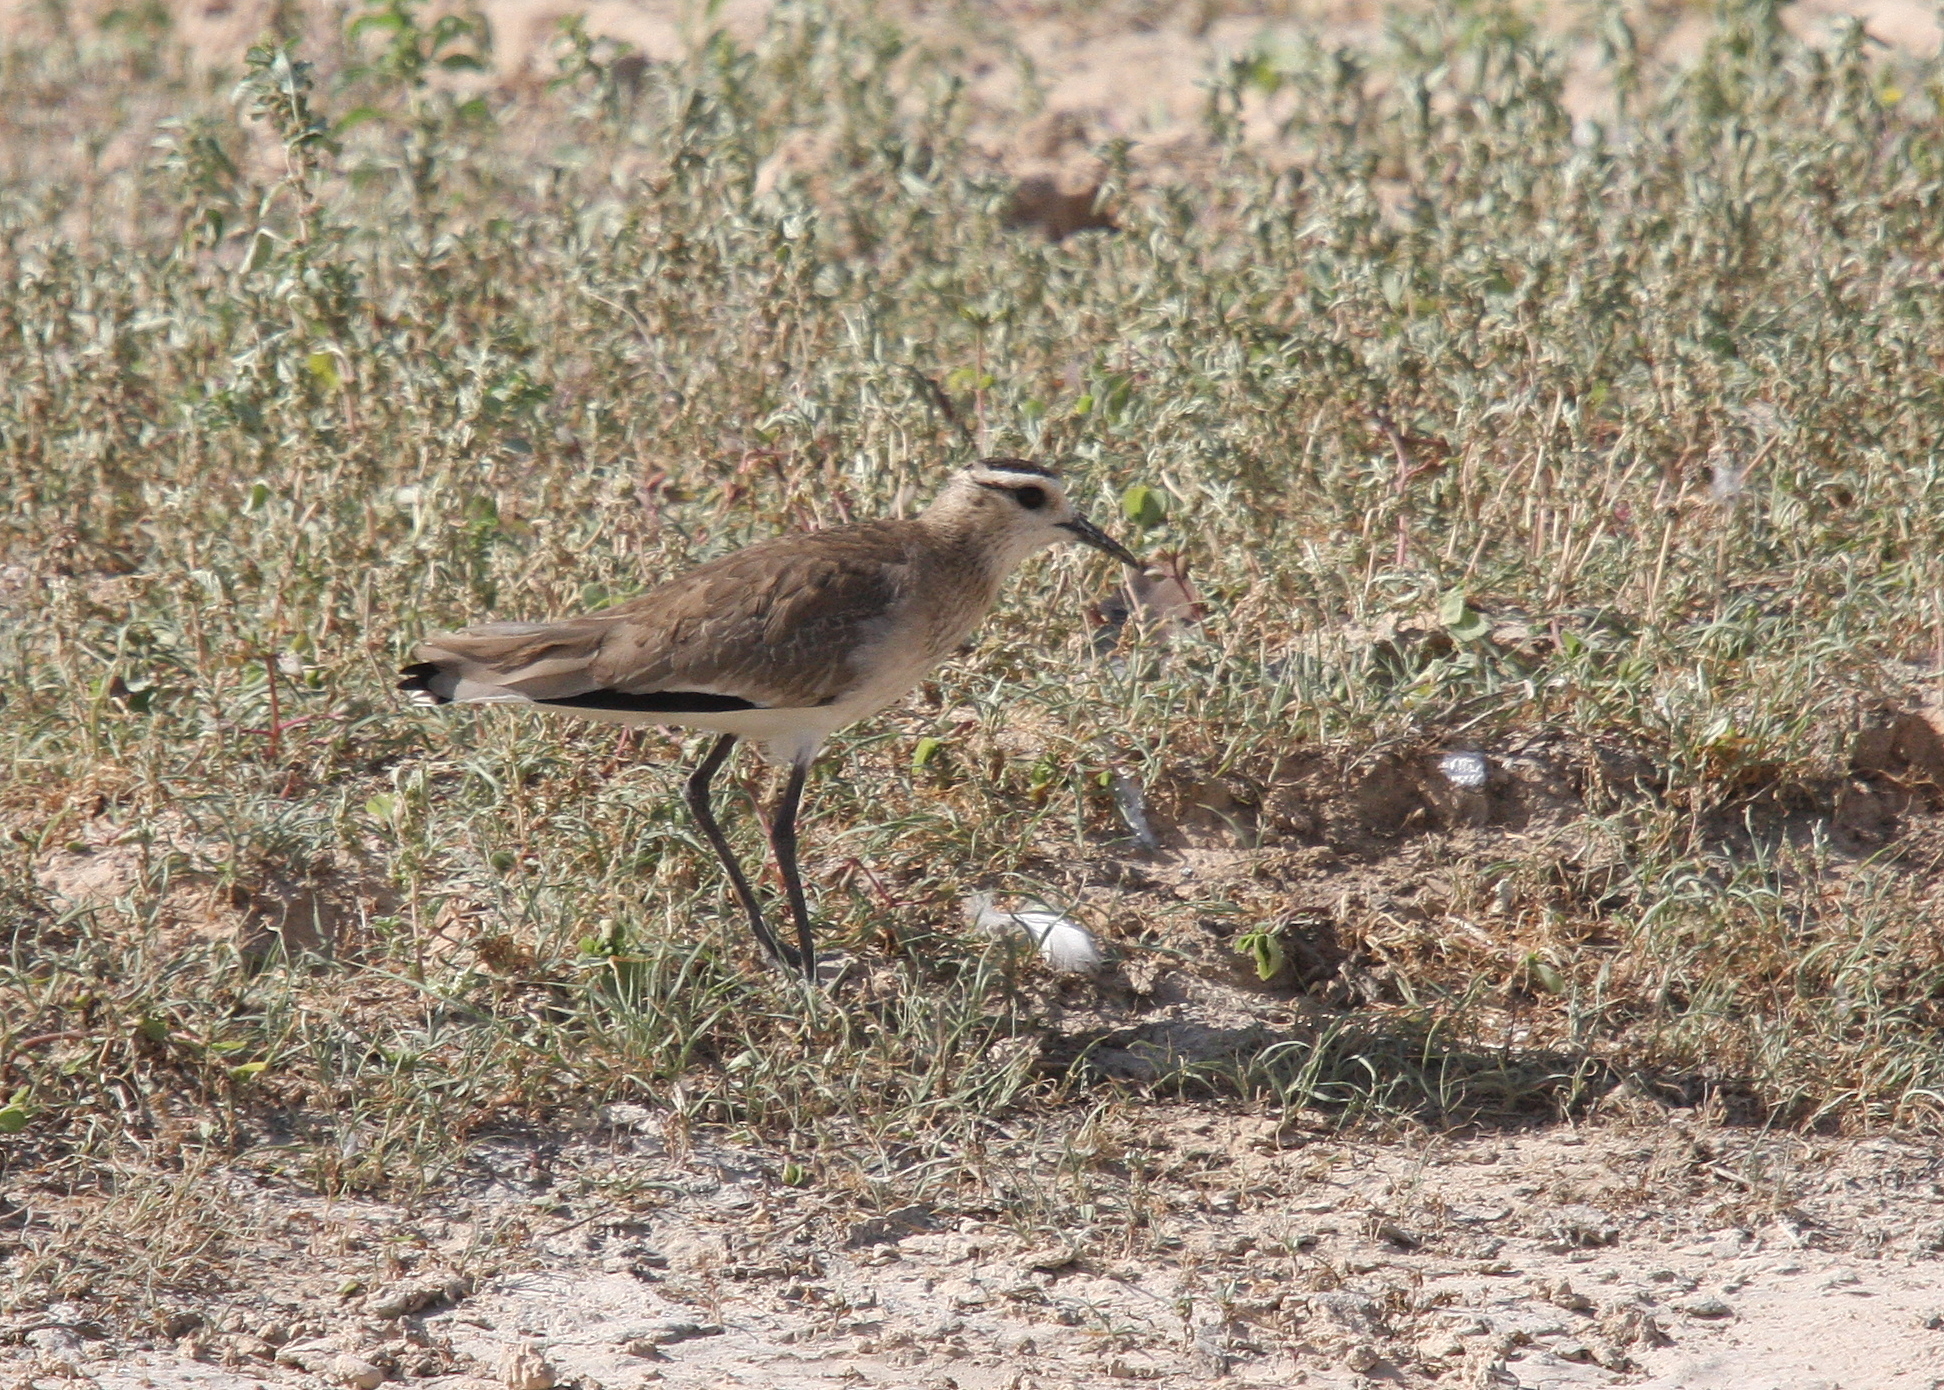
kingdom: Animalia
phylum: Chordata
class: Aves
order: Charadriiformes
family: Charadriidae
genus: Vanellus
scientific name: Vanellus gregarius
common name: Sociable lapwing
